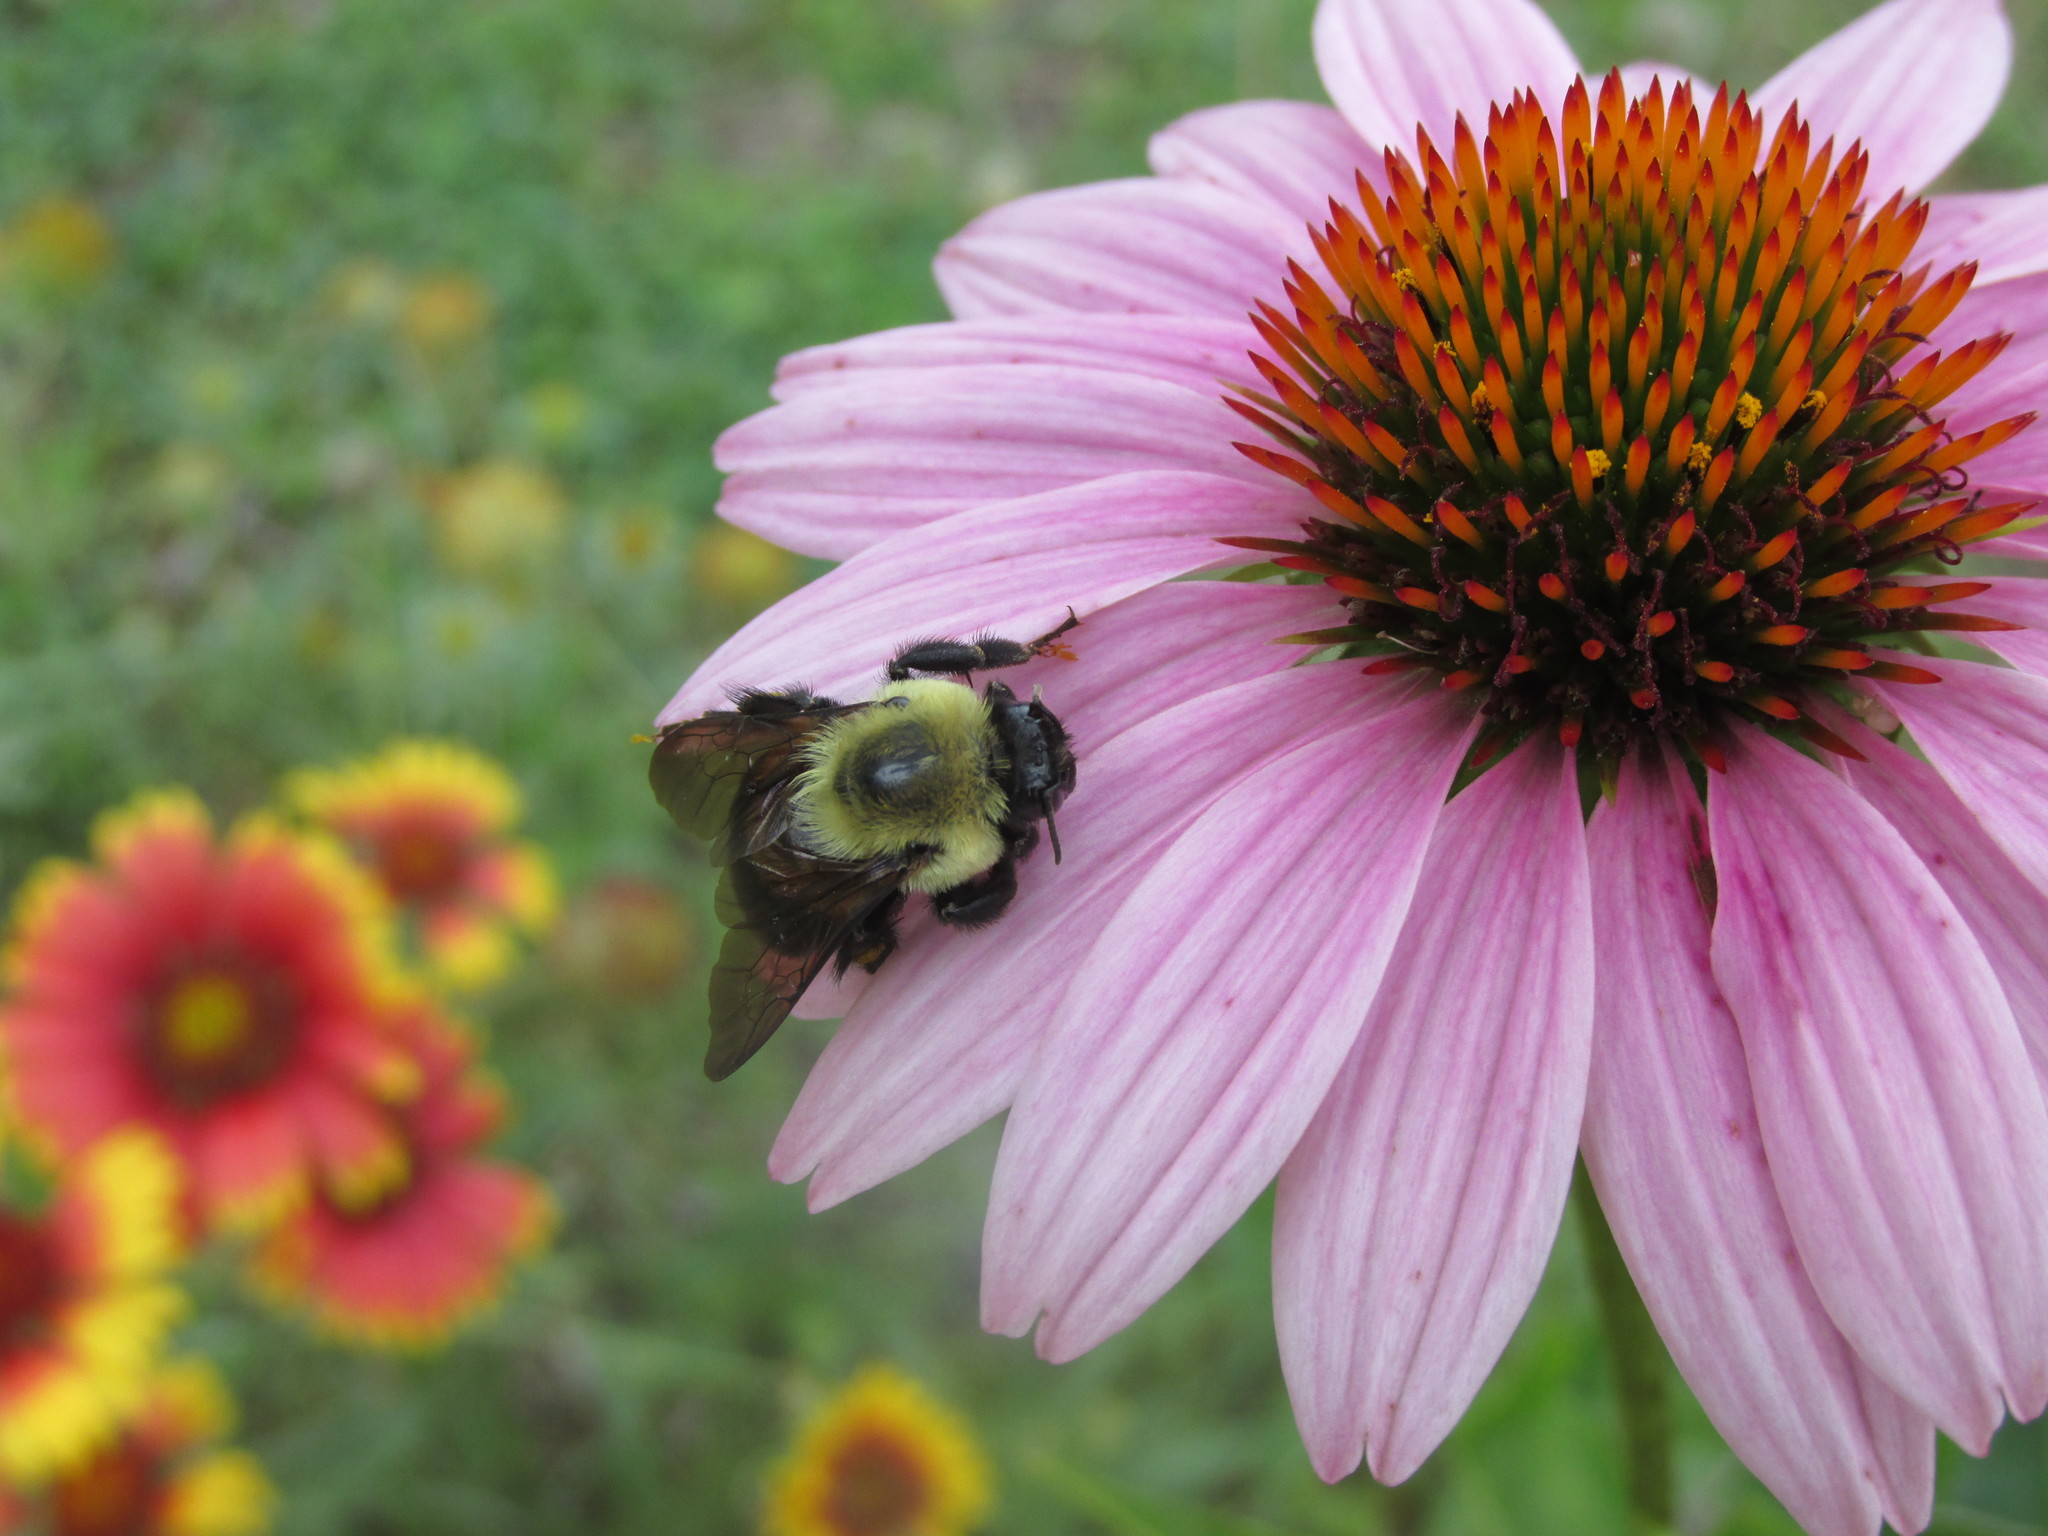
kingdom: Animalia
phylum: Arthropoda
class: Insecta
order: Hymenoptera
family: Apidae
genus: Bombus
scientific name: Bombus griseocollis
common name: Brown-belted bumble bee
